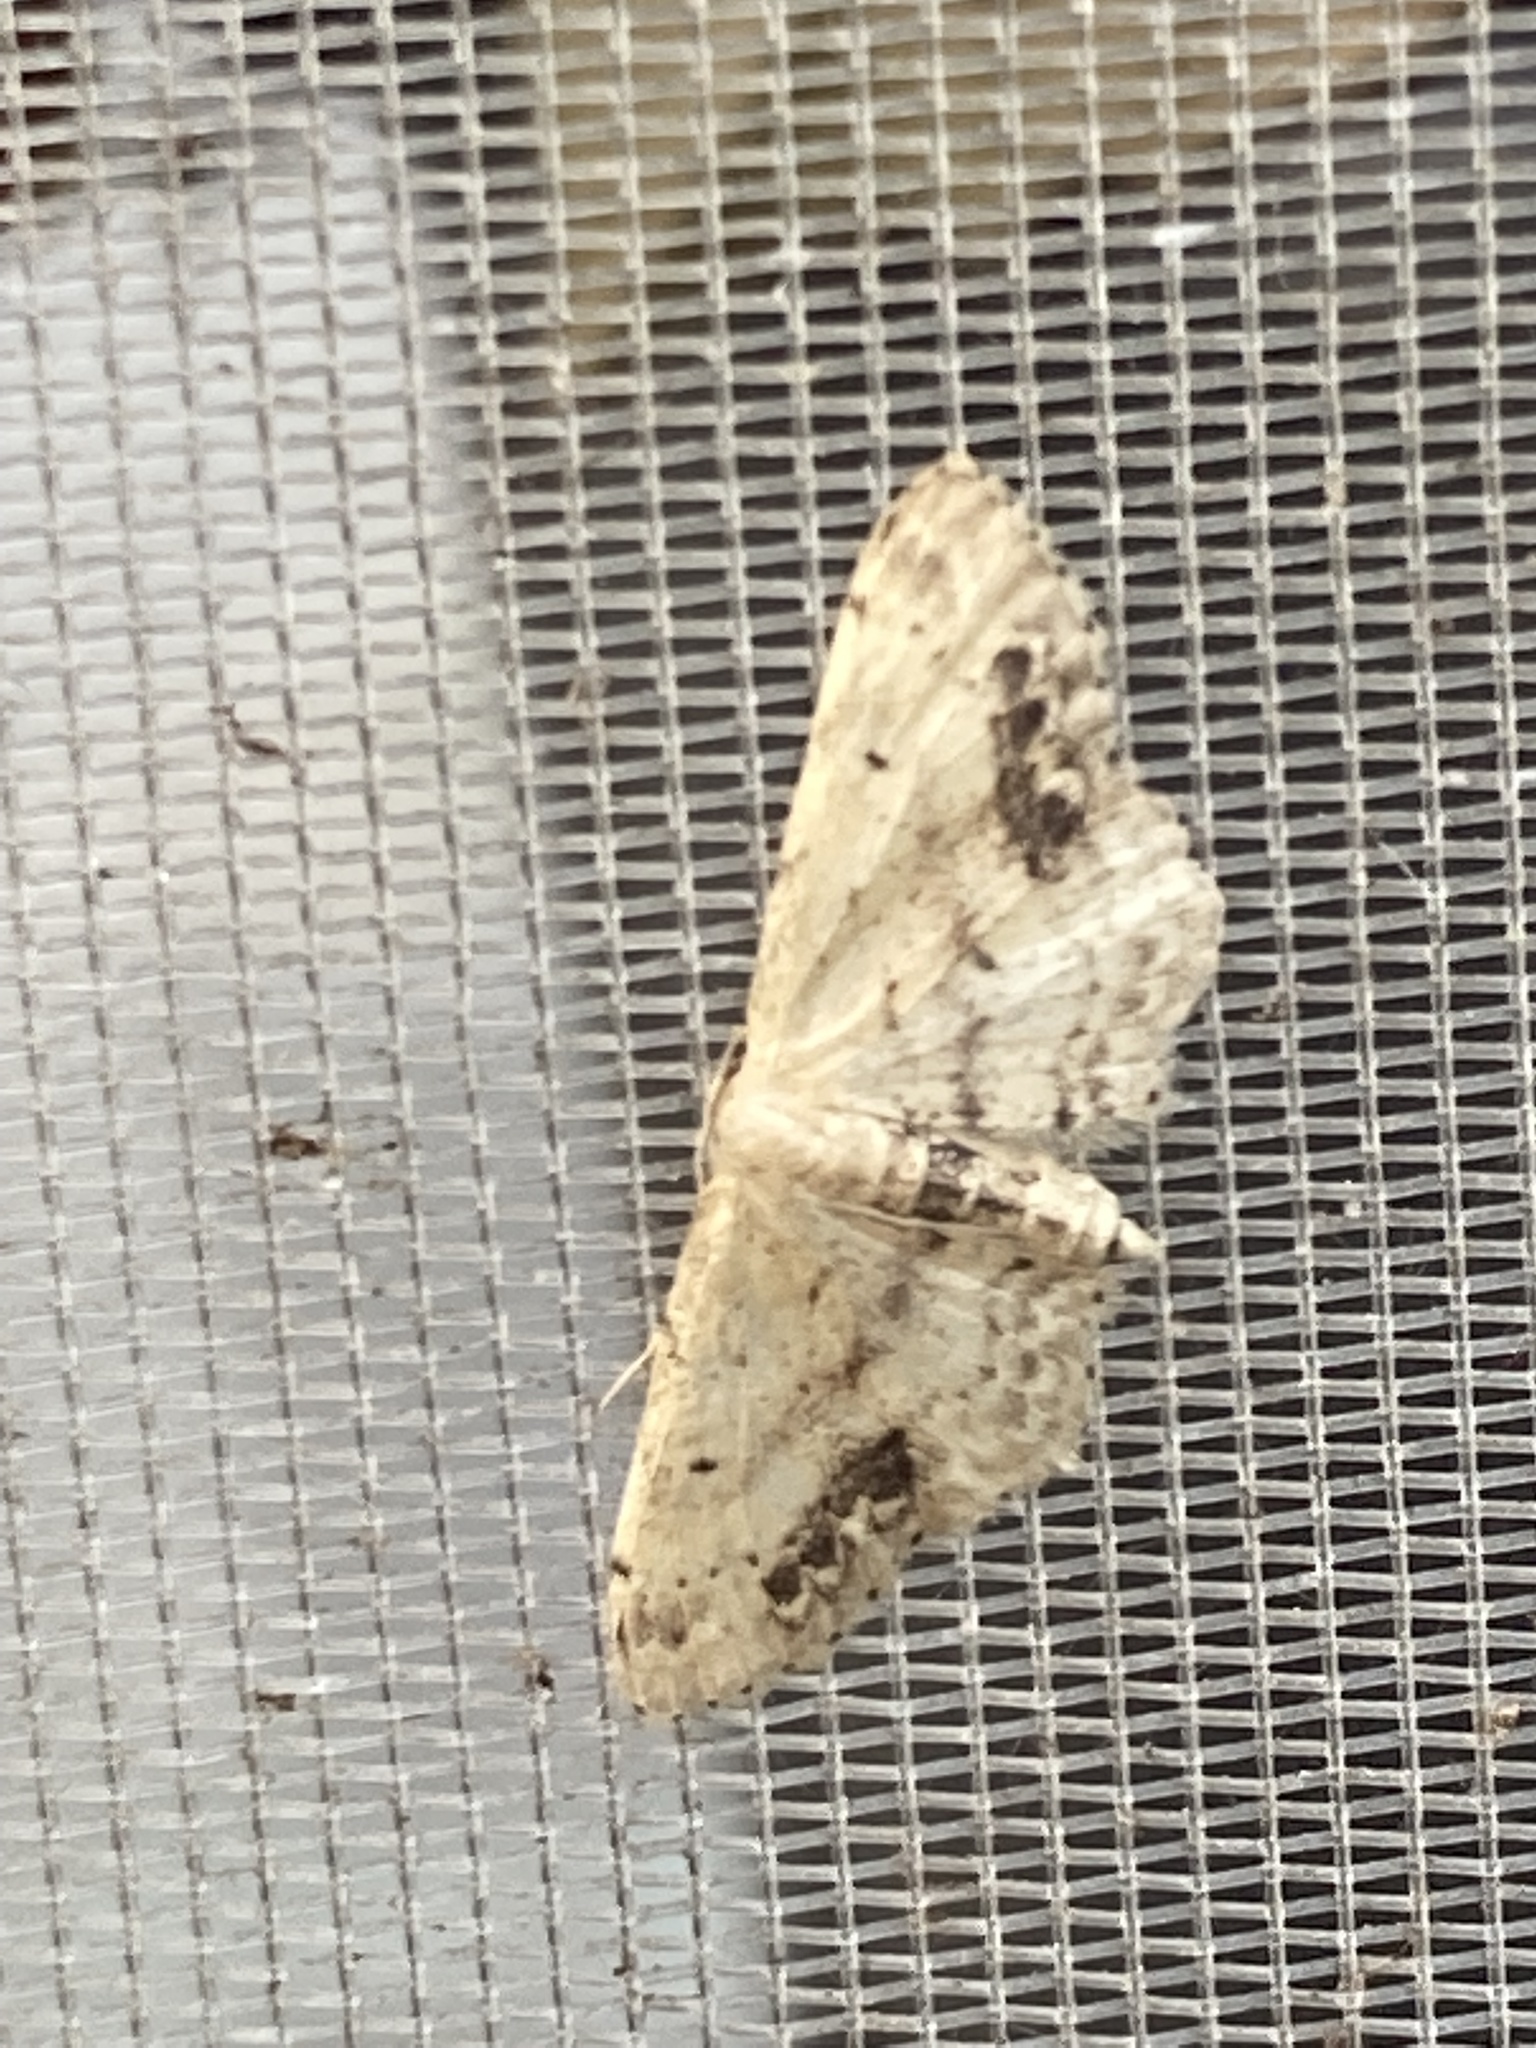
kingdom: Animalia
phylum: Arthropoda
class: Insecta
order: Lepidoptera
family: Geometridae
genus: Idaea
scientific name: Idaea dimidiata
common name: Single-dotted wave
